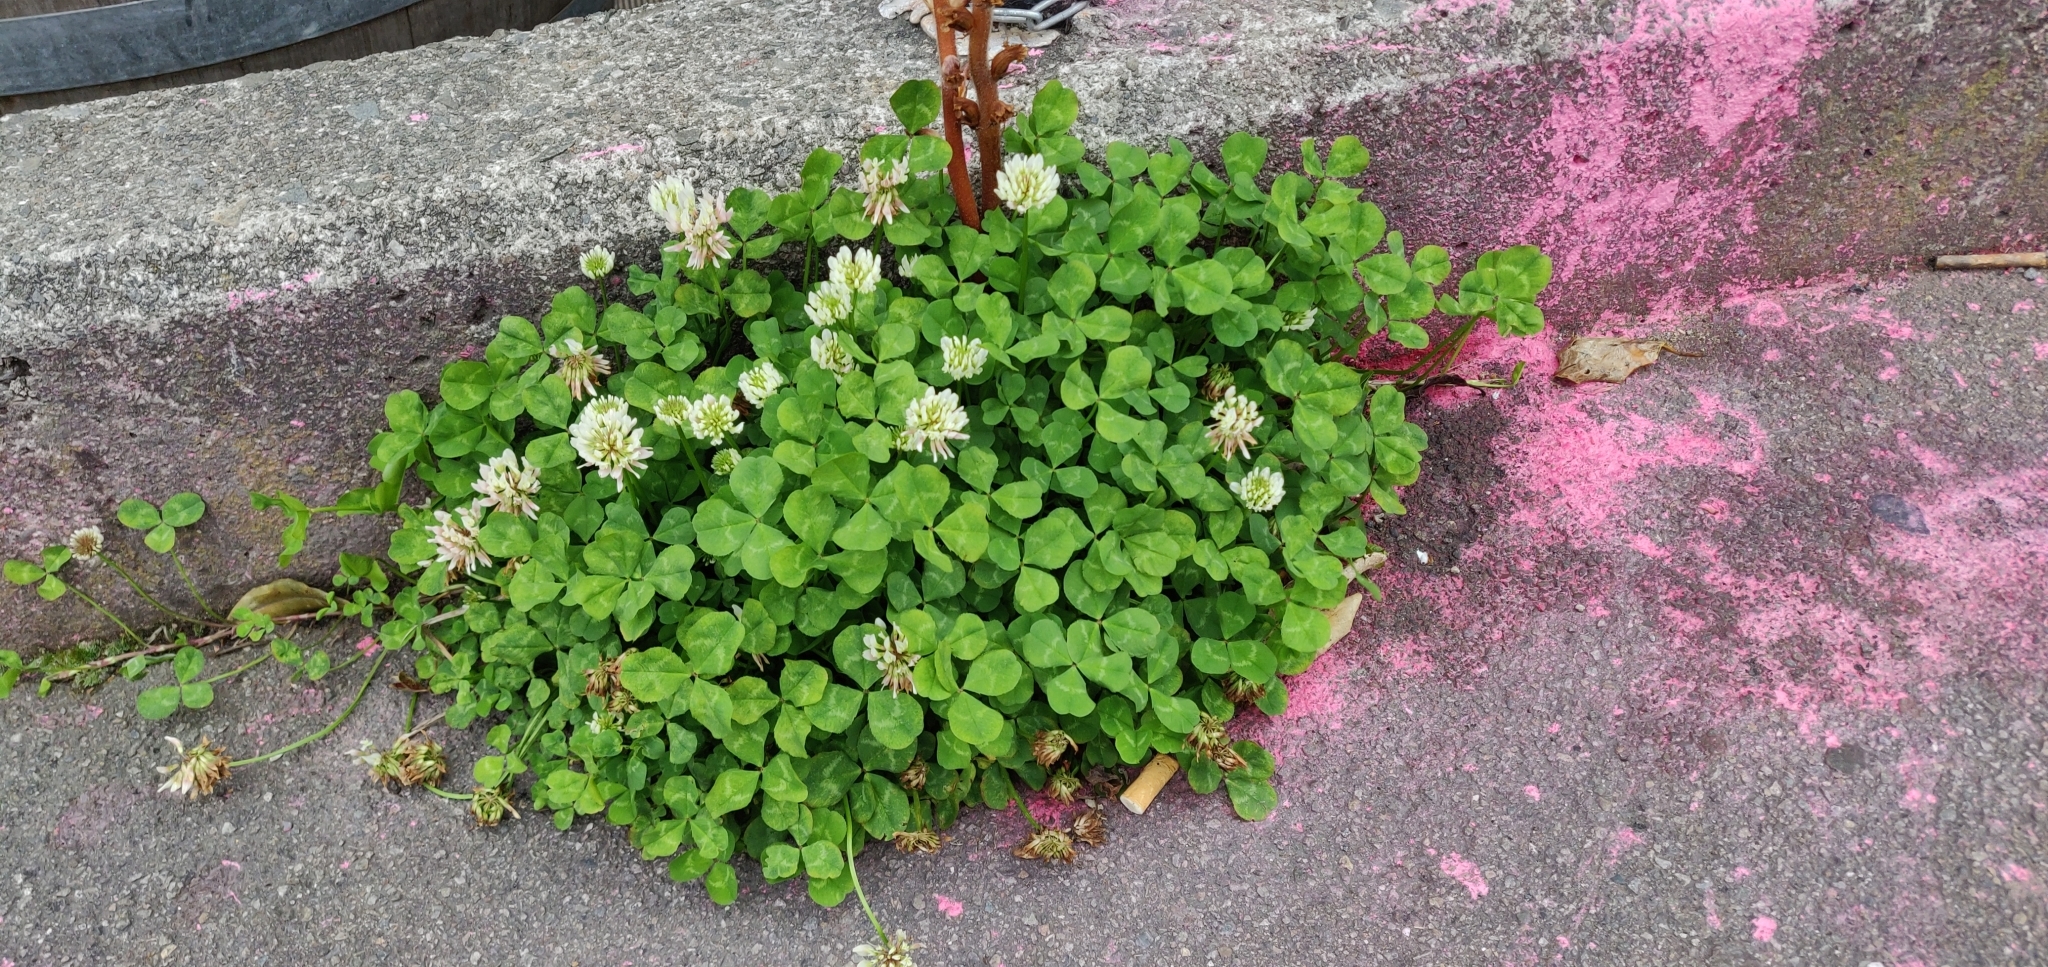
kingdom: Plantae
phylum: Tracheophyta
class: Magnoliopsida
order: Fabales
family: Fabaceae
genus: Trifolium
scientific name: Trifolium repens
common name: White clover
